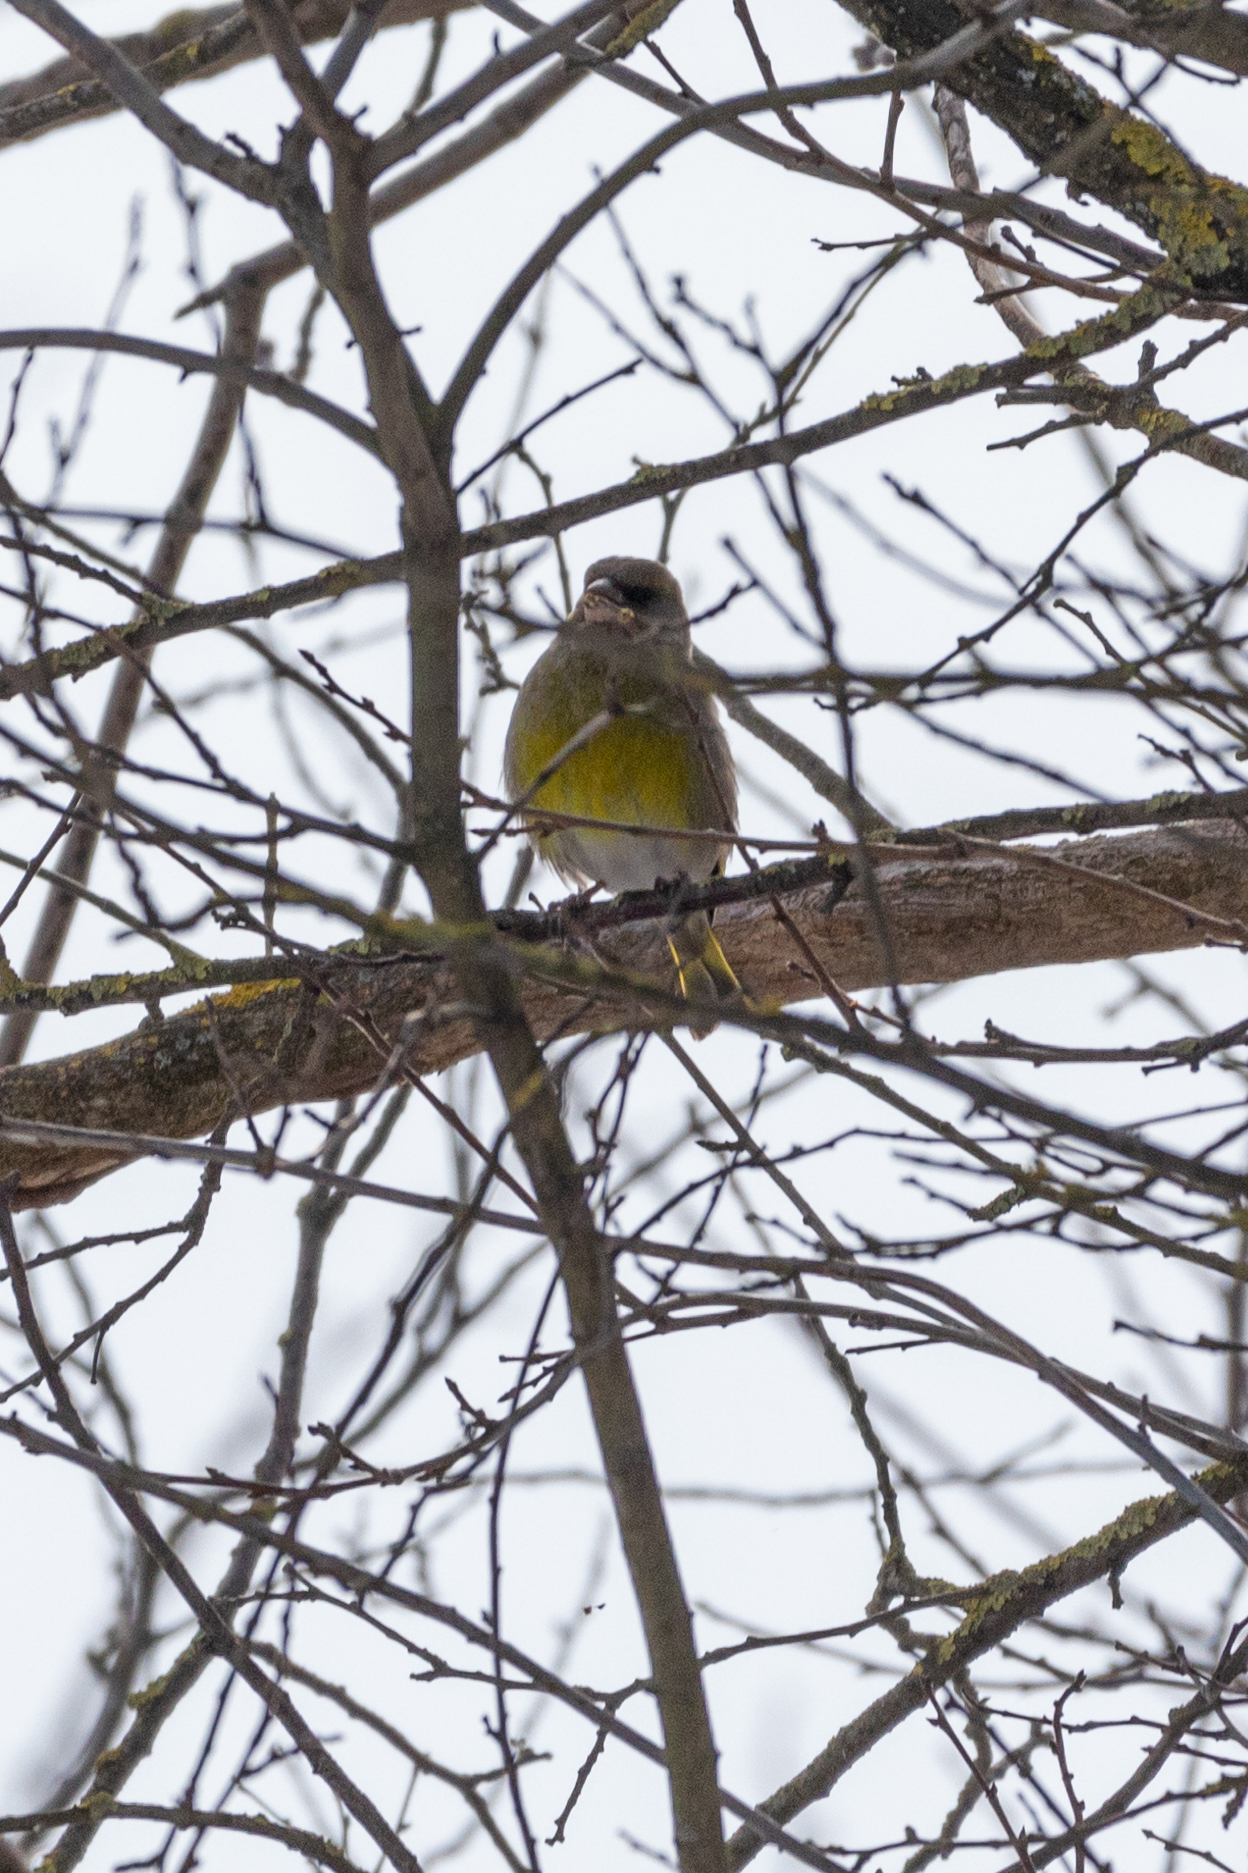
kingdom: Plantae
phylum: Tracheophyta
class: Liliopsida
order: Poales
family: Poaceae
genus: Chloris
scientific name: Chloris chloris
